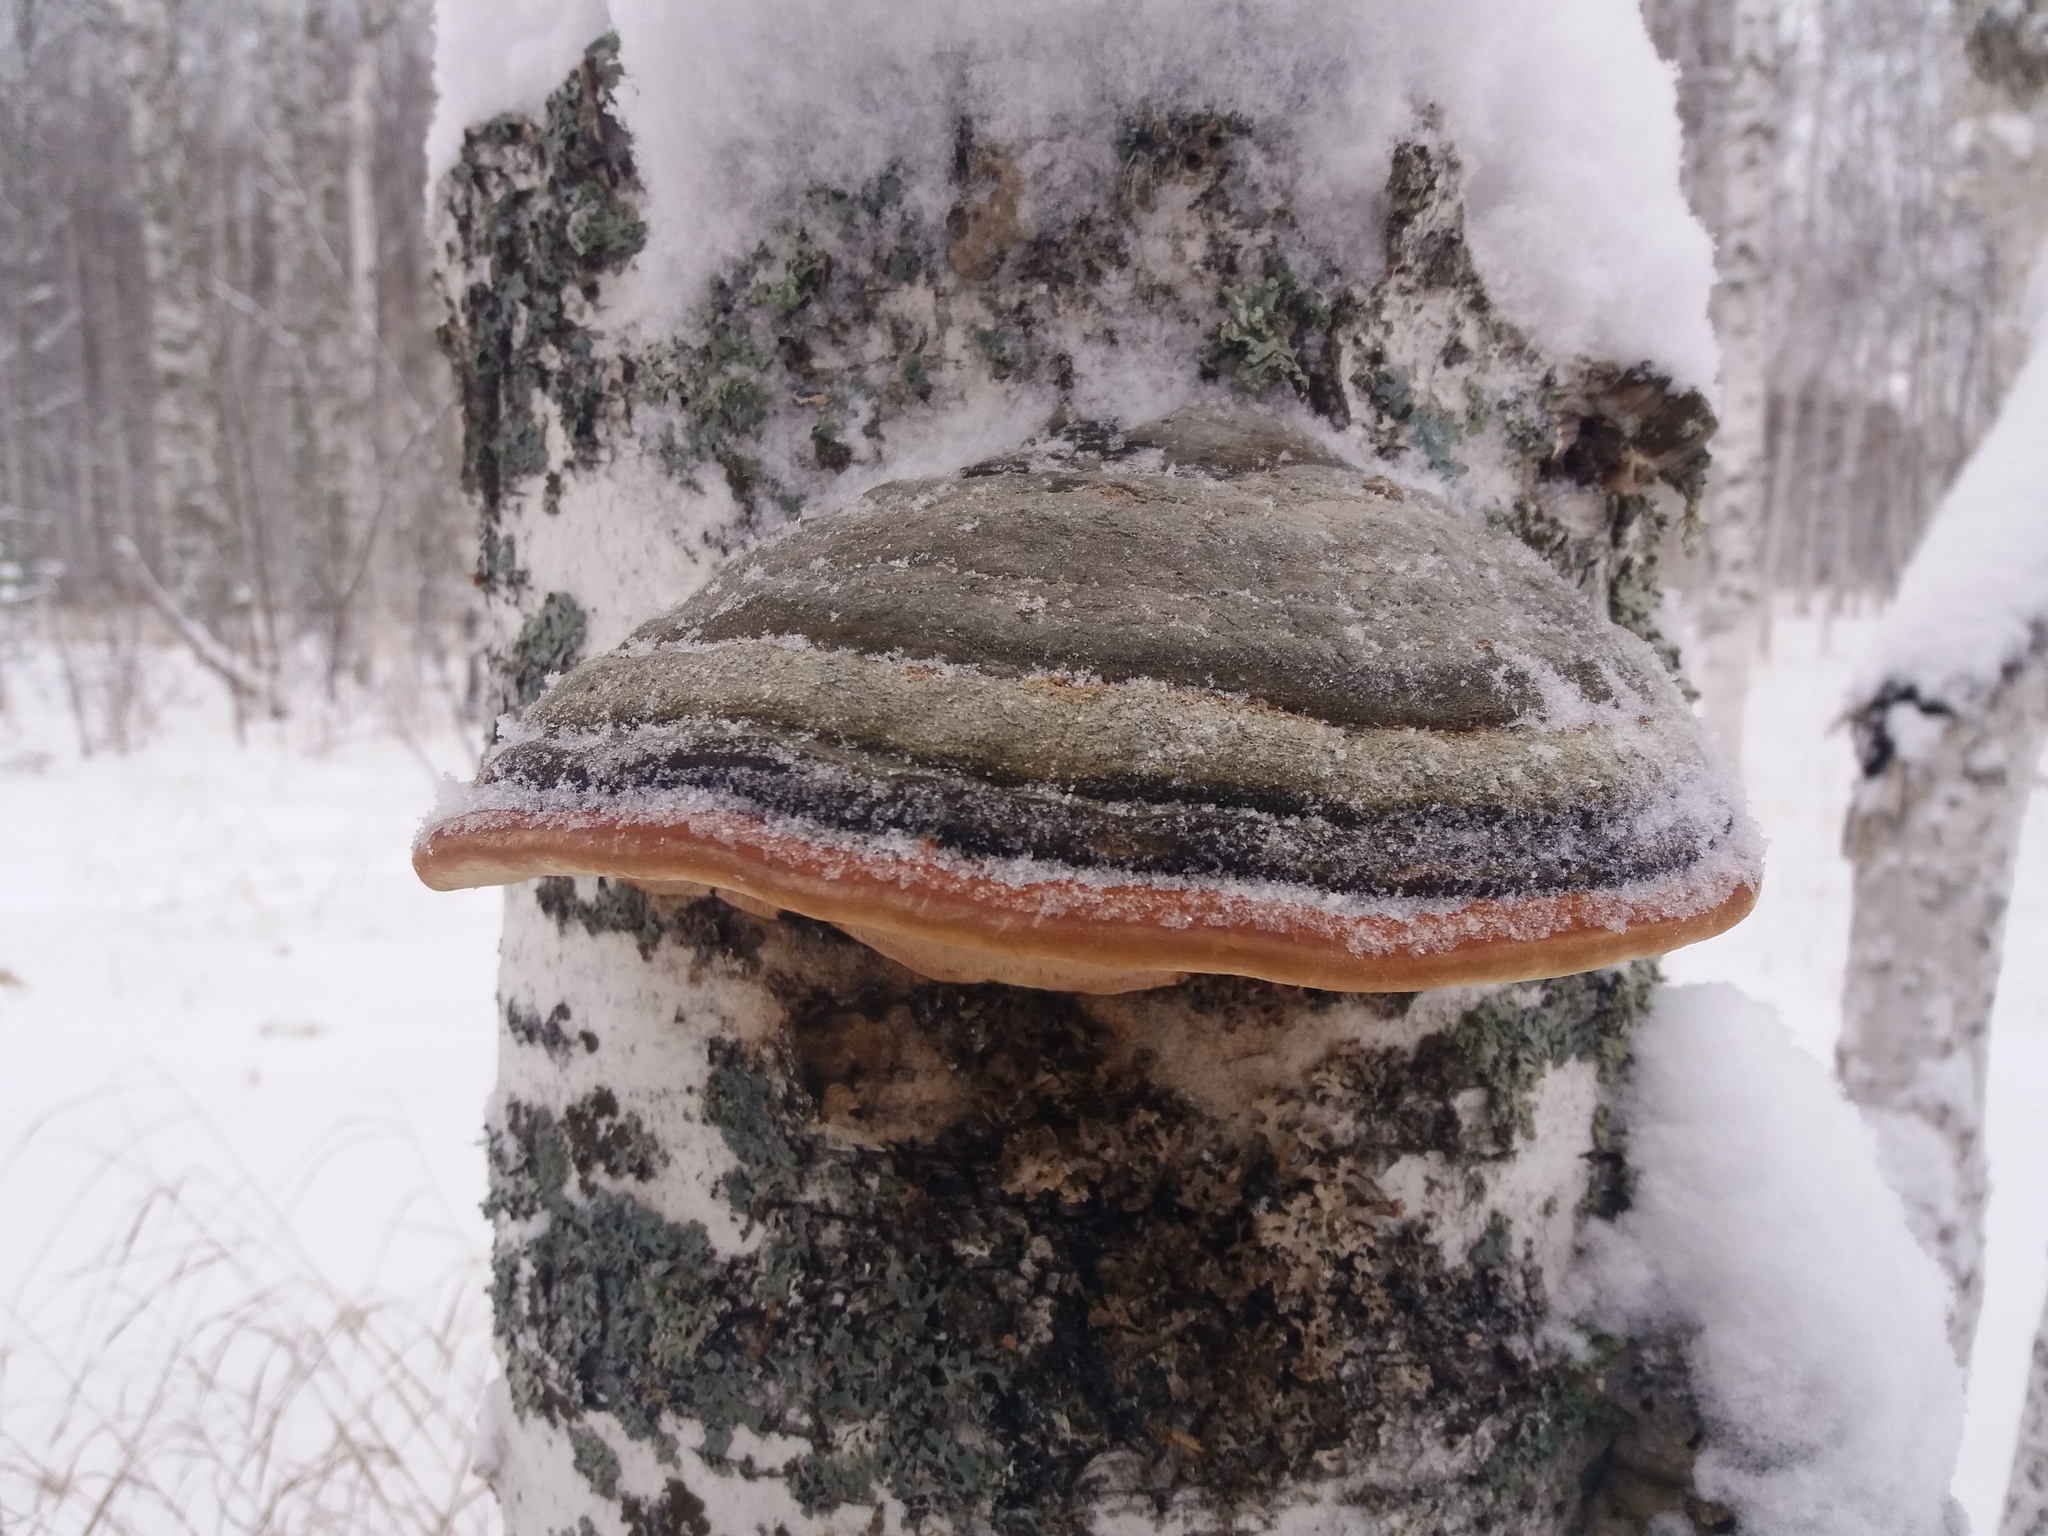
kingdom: Fungi
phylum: Basidiomycota
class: Agaricomycetes
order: Polyporales
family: Fomitopsidaceae
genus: Fomitopsis
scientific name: Fomitopsis pinicola
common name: Red-belted bracket
